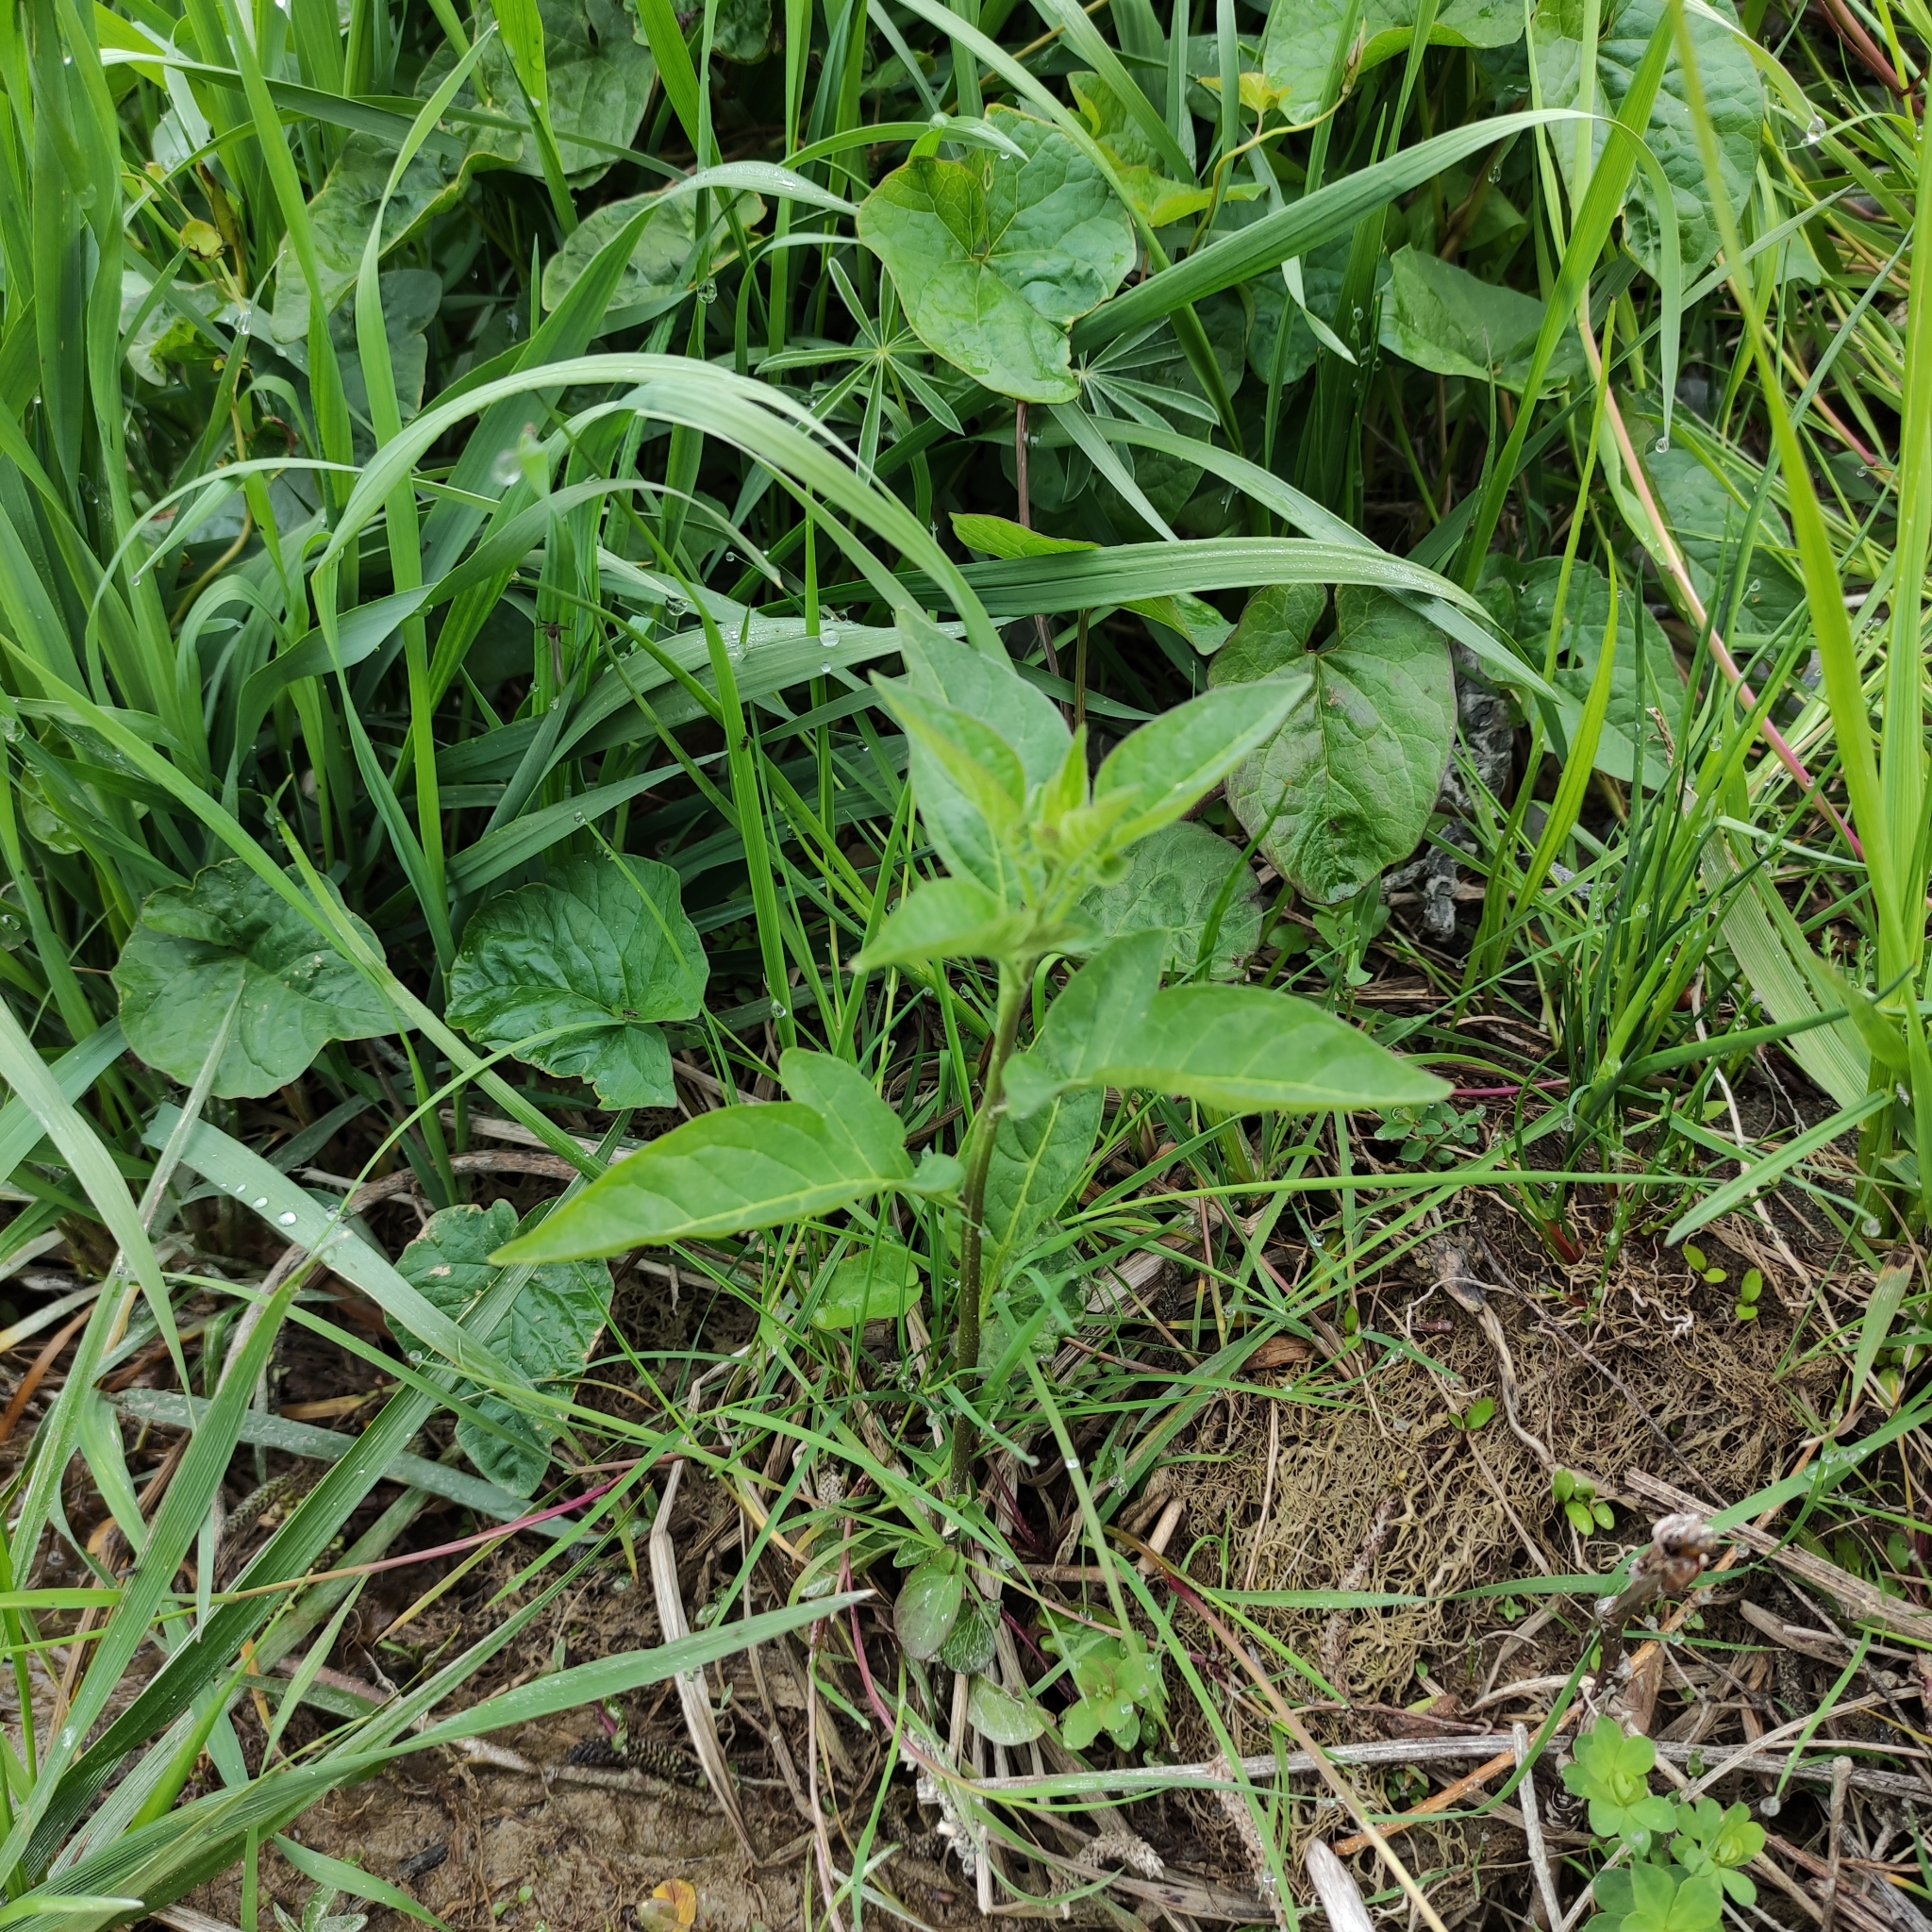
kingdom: Plantae
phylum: Tracheophyta
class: Magnoliopsida
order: Solanales
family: Solanaceae
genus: Solanum
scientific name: Solanum dulcamara
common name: Climbing nightshade
